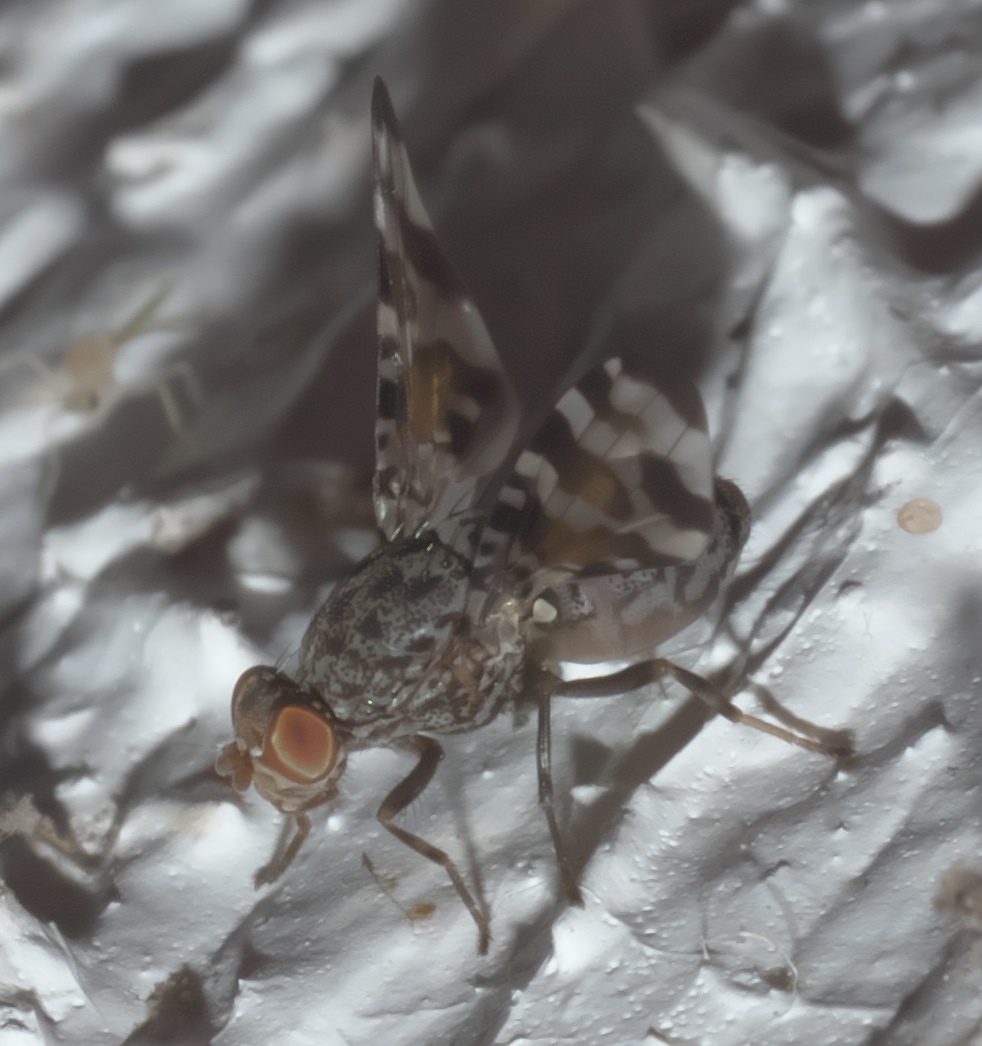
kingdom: Animalia
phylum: Arthropoda
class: Insecta
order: Diptera
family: Ulidiidae
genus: Pseudotephritis
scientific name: Pseudotephritis approximata
